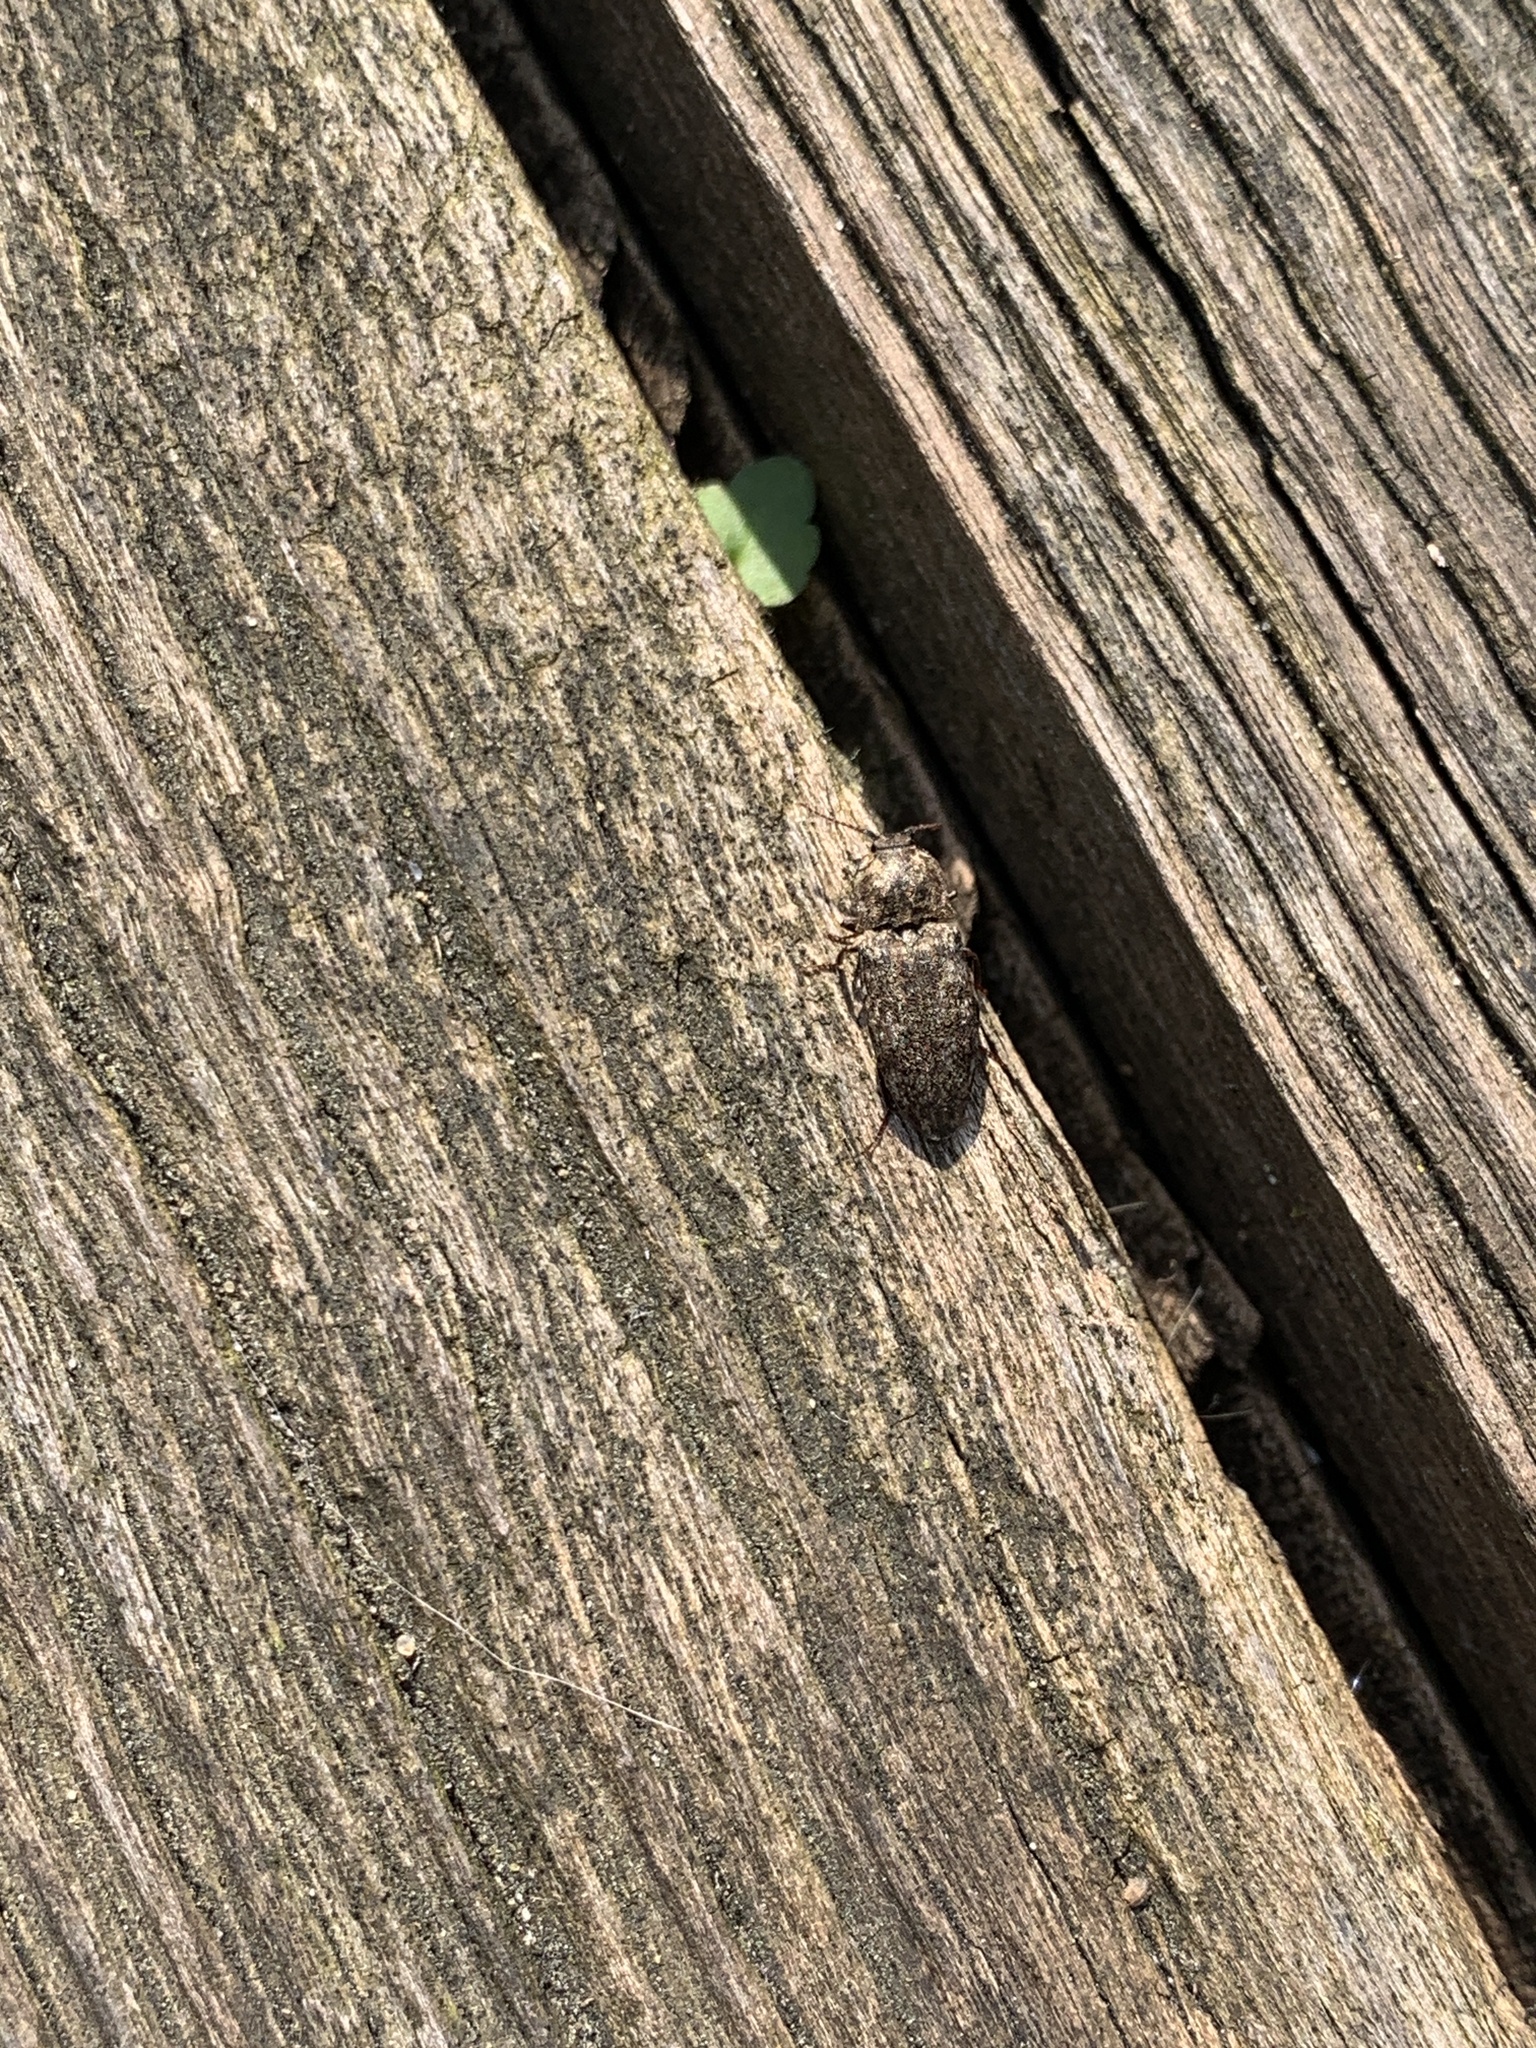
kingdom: Animalia
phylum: Arthropoda
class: Insecta
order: Coleoptera
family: Elateridae
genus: Agrypnus
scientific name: Agrypnus murinus
